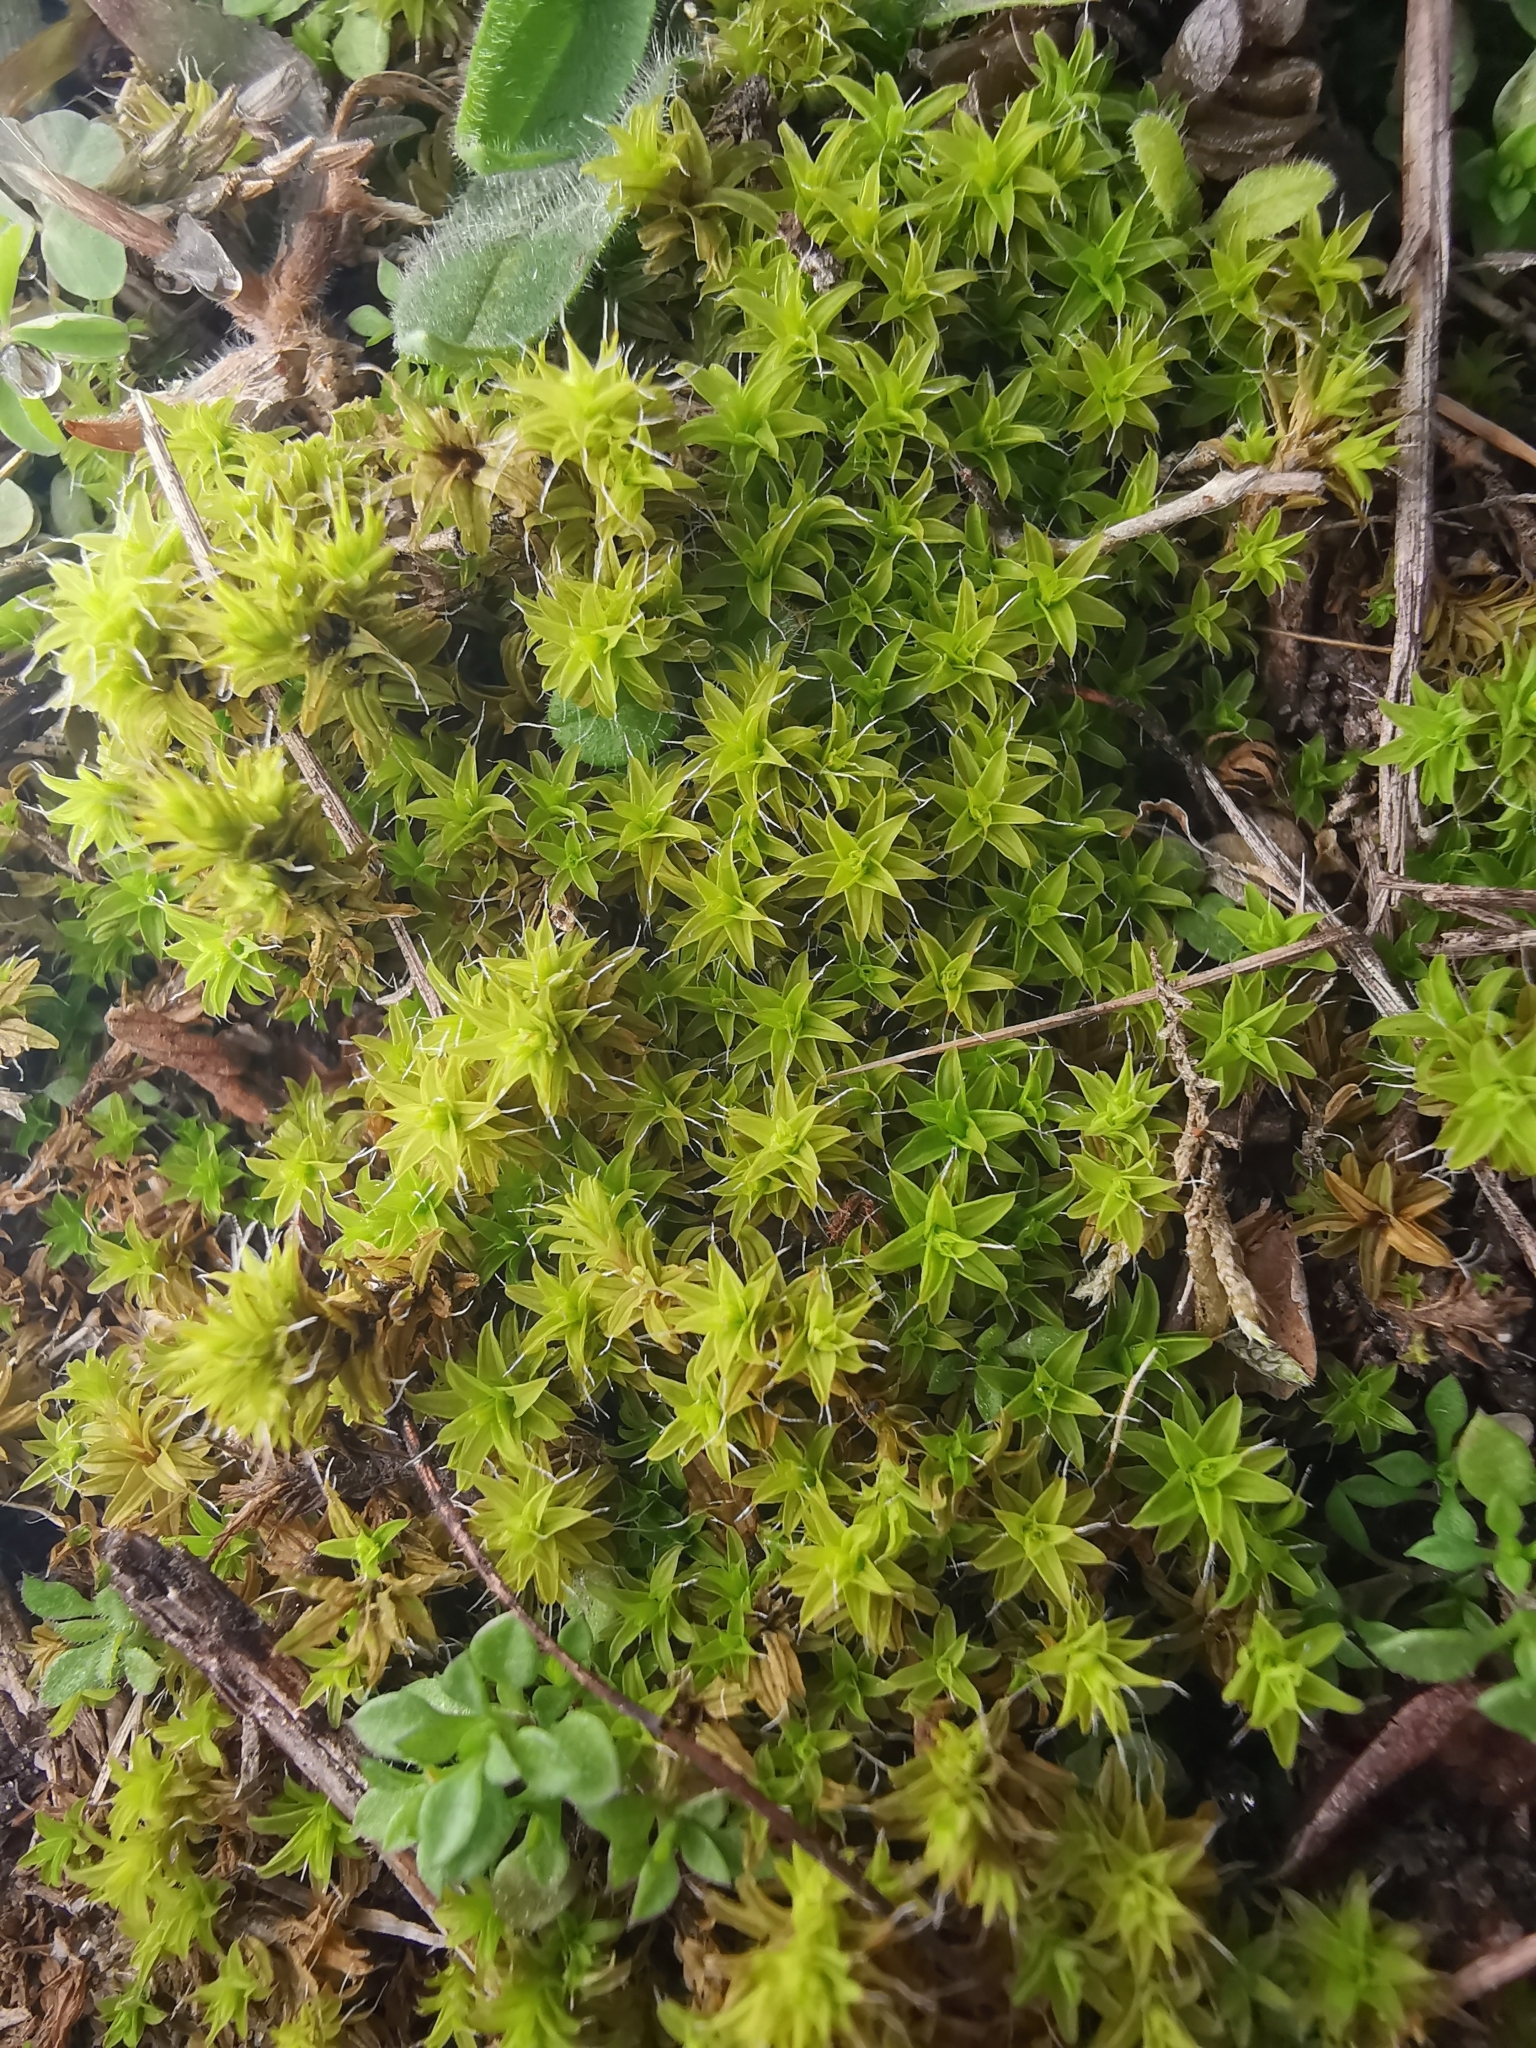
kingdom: Plantae
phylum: Bryophyta
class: Bryopsida
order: Pottiales
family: Pottiaceae
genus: Syntrichia
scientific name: Syntrichia ruralis
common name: Sidewalk screw moss
